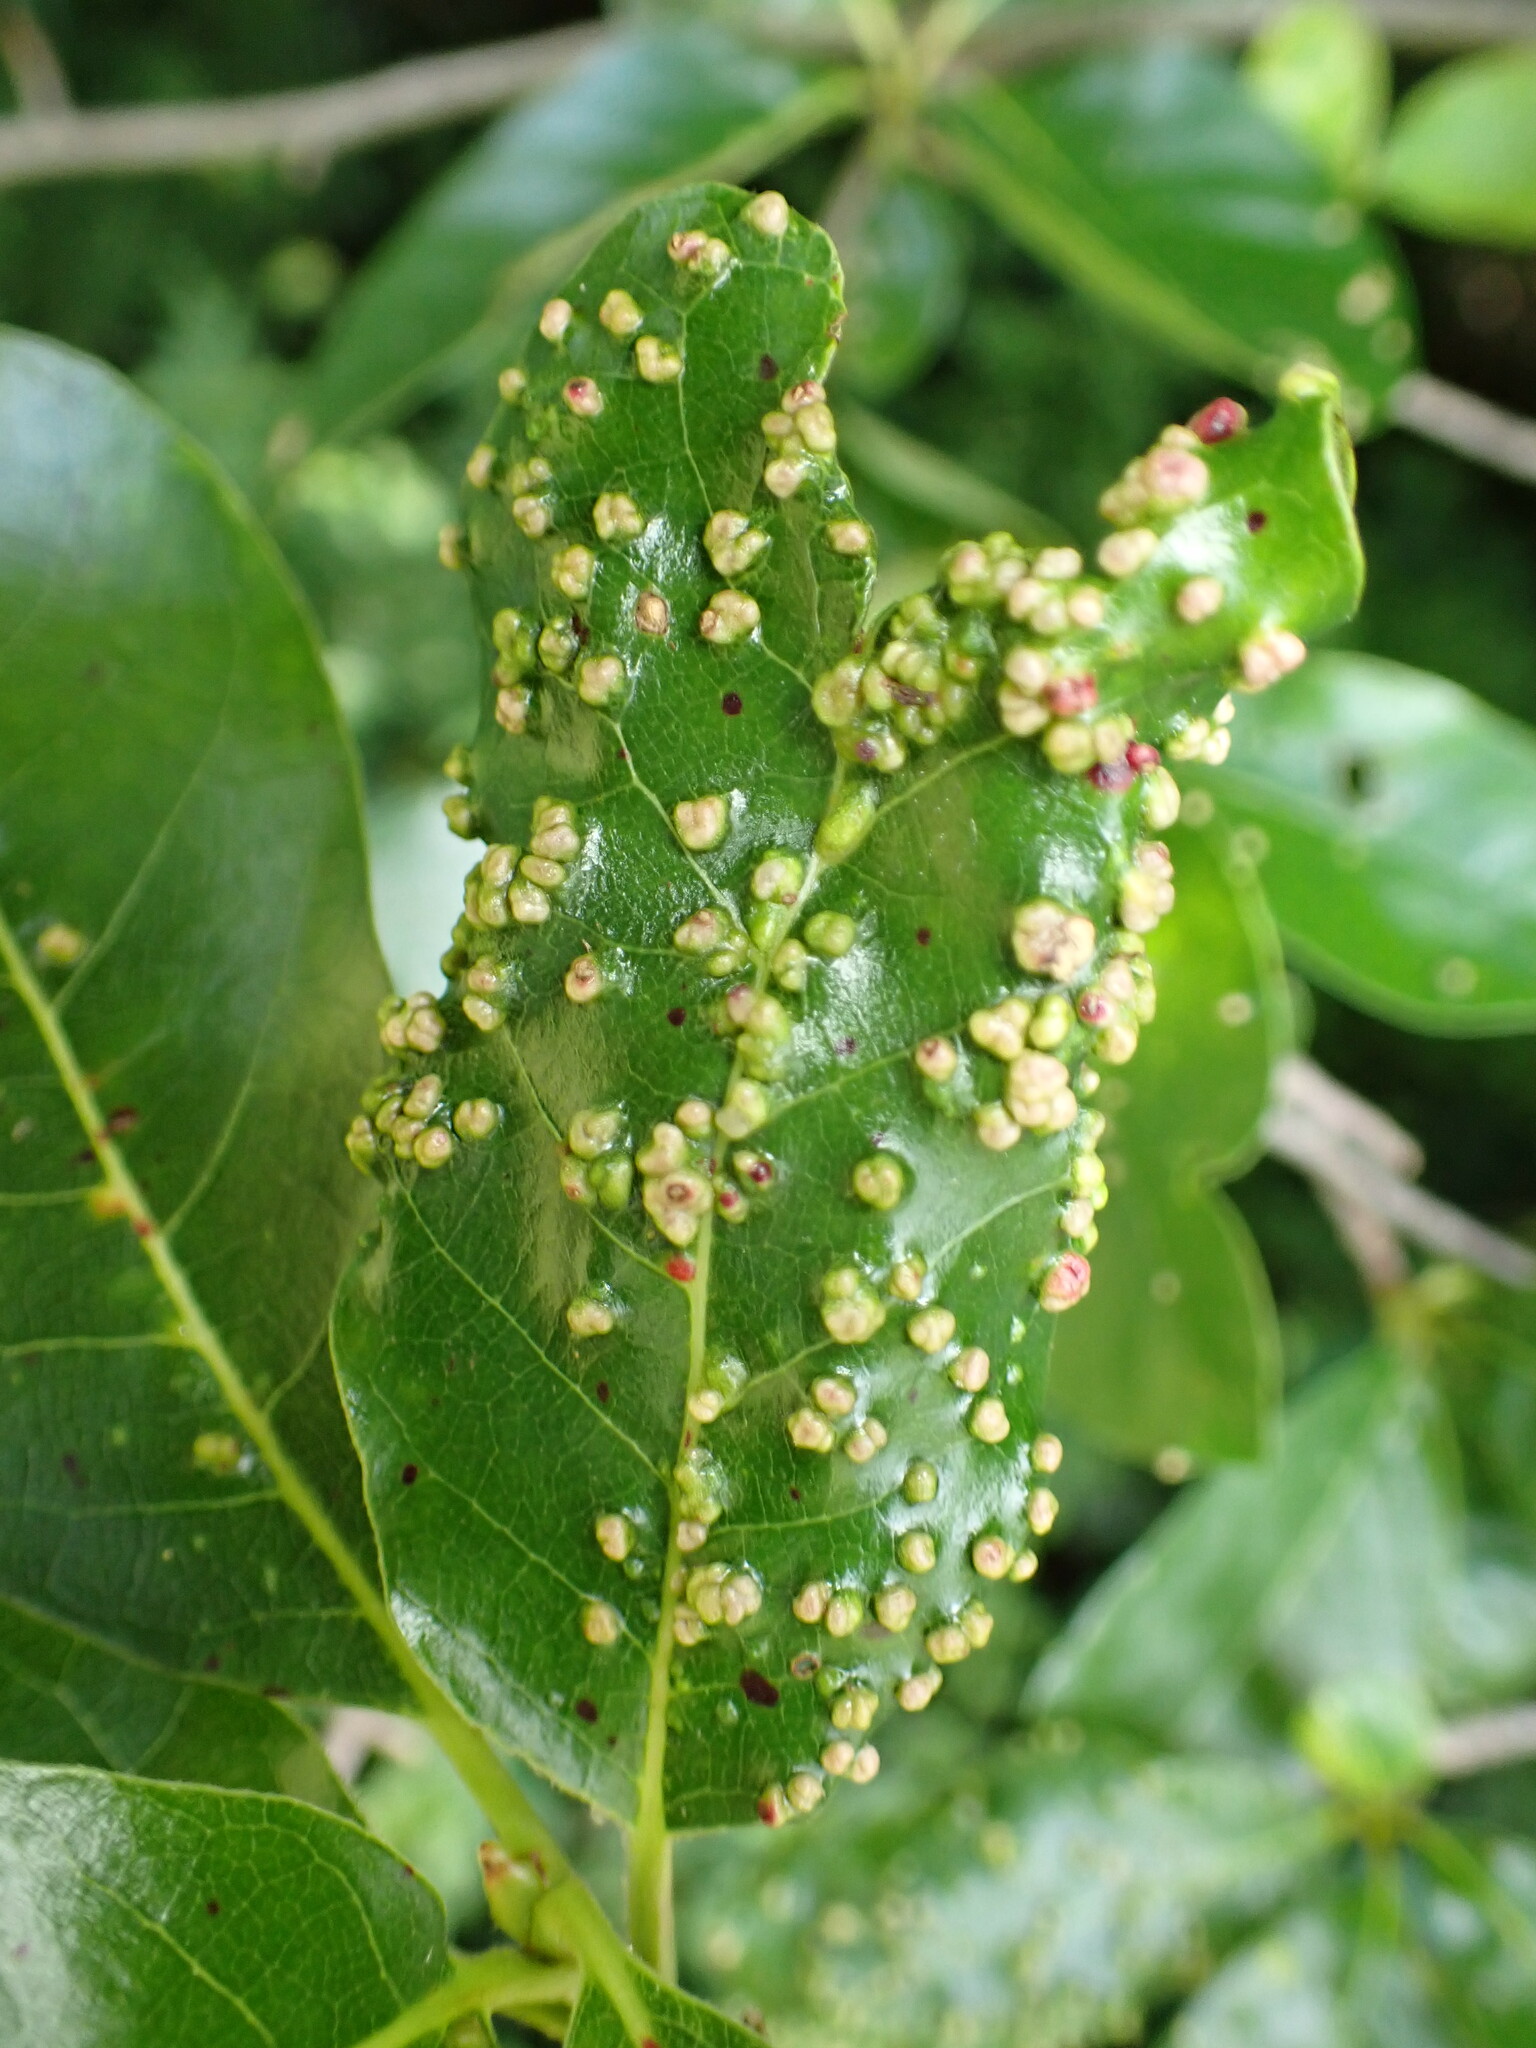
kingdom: Animalia
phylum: Arthropoda
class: Arachnida
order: Trombidiformes
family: Eriophyidae
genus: Aceria
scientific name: Aceria
